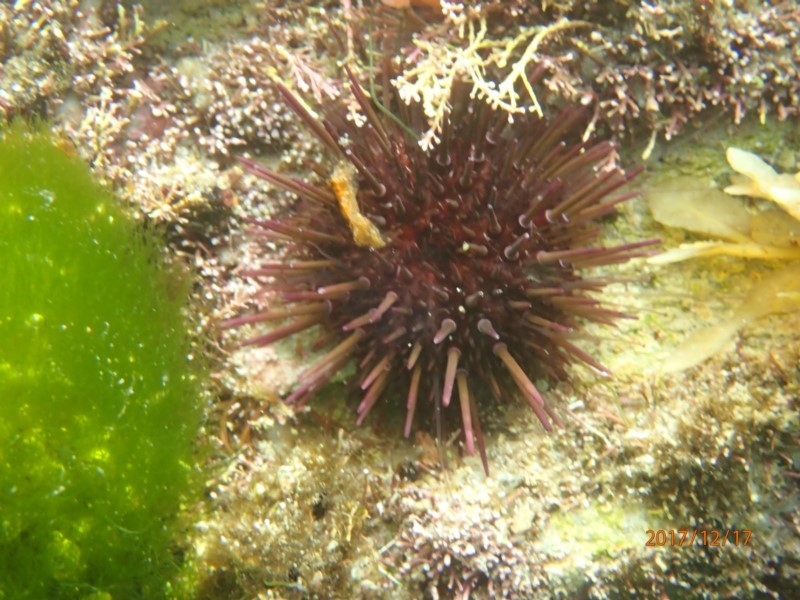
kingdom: Animalia
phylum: Echinodermata
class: Echinoidea
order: Camarodonta
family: Echinometridae
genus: Heliocidaris
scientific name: Heliocidaris erythrogramma
